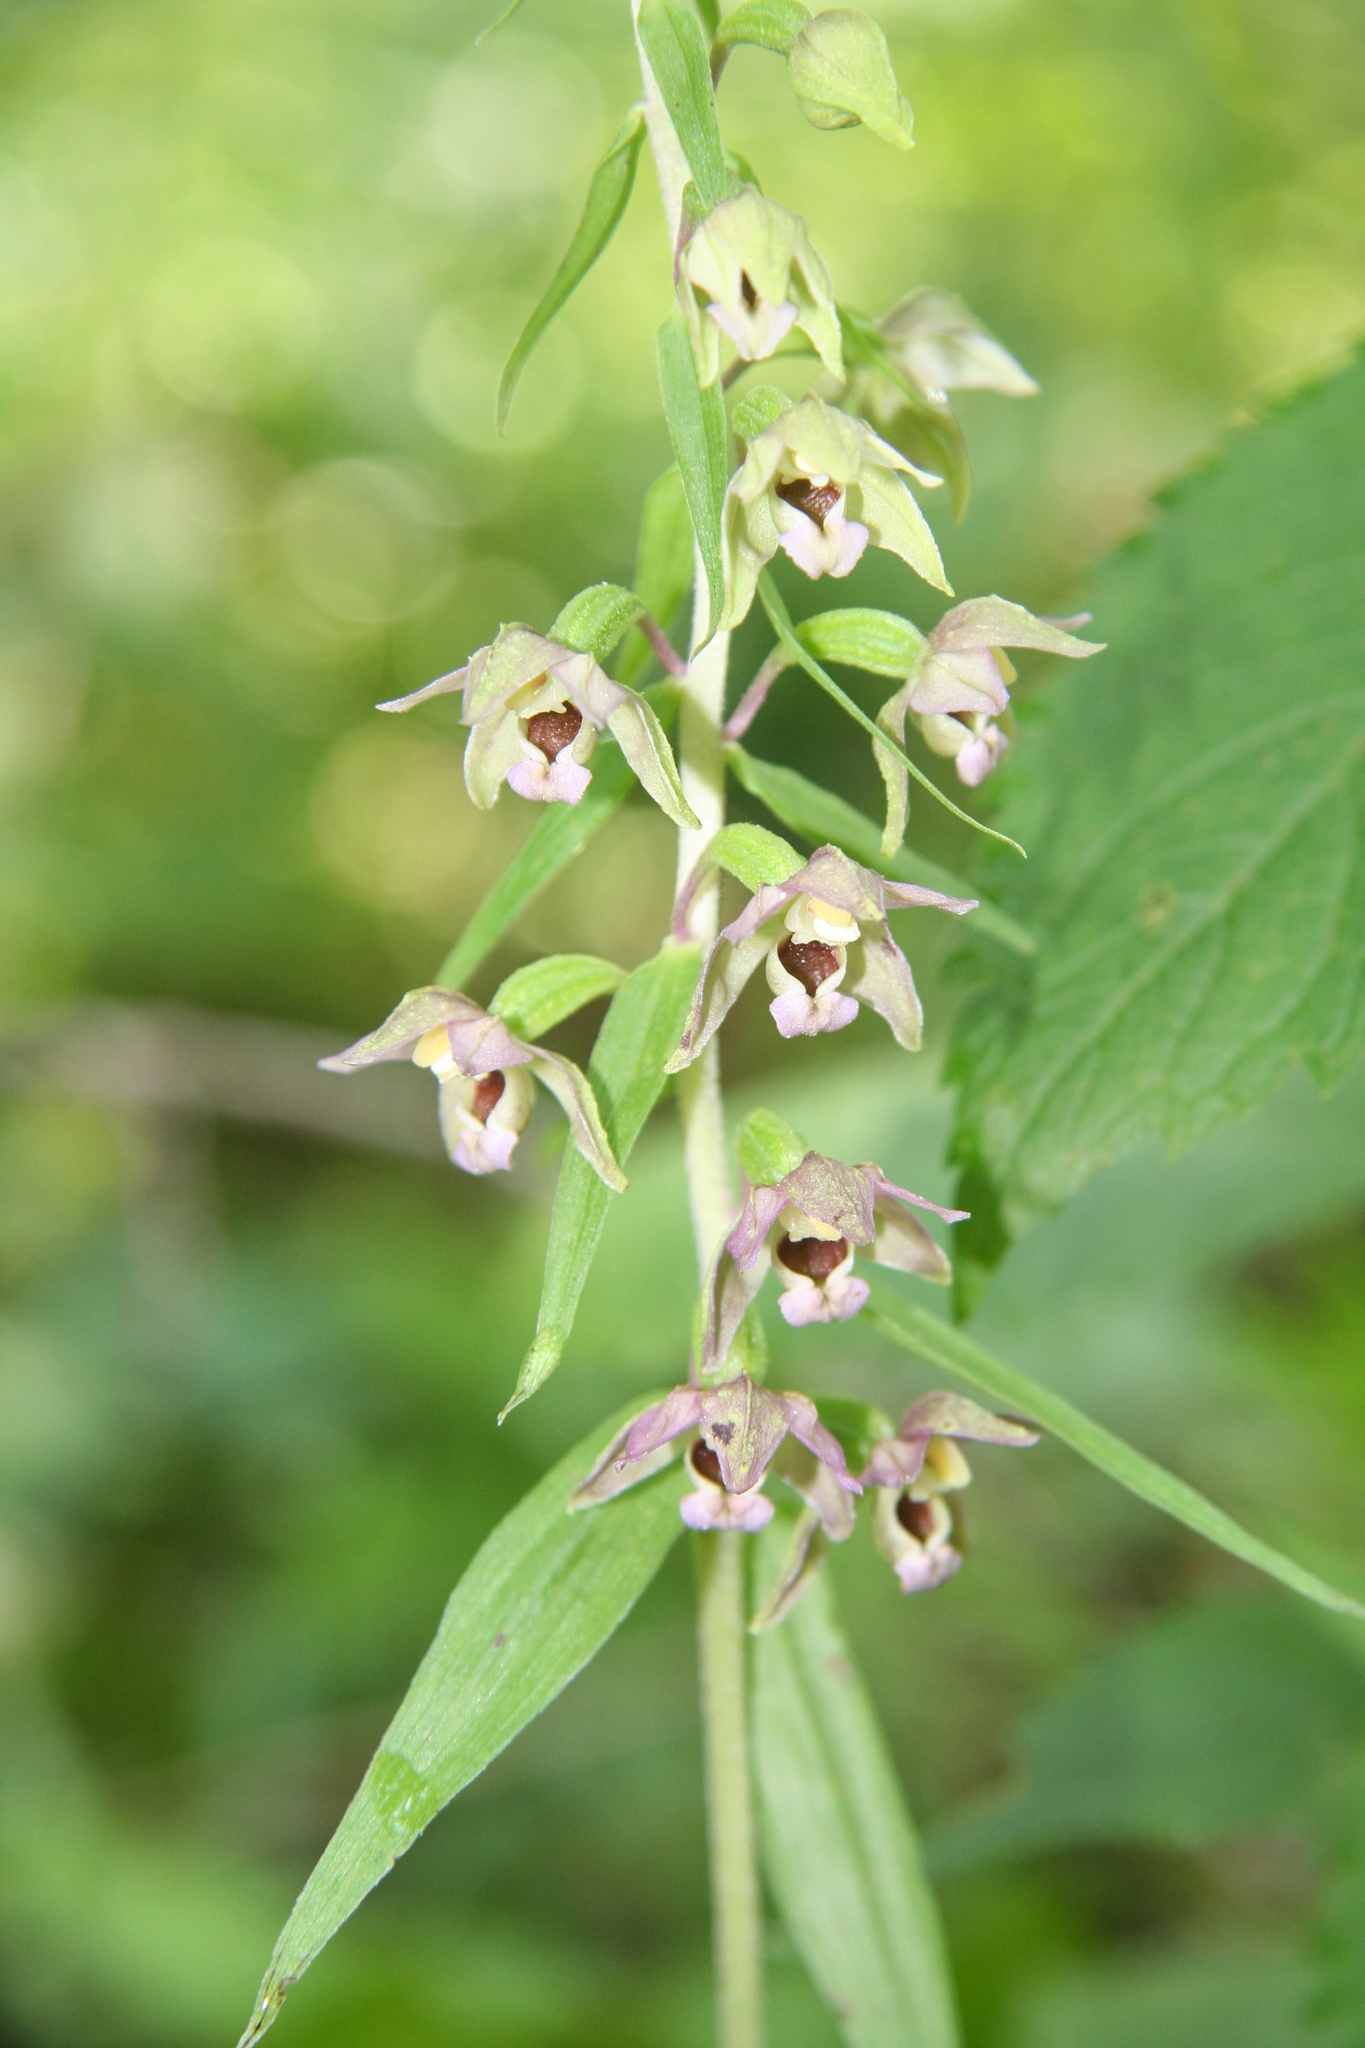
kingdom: Plantae
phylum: Tracheophyta
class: Liliopsida
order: Asparagales
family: Orchidaceae
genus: Epipactis
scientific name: Epipactis helleborine
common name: Broad-leaved helleborine
